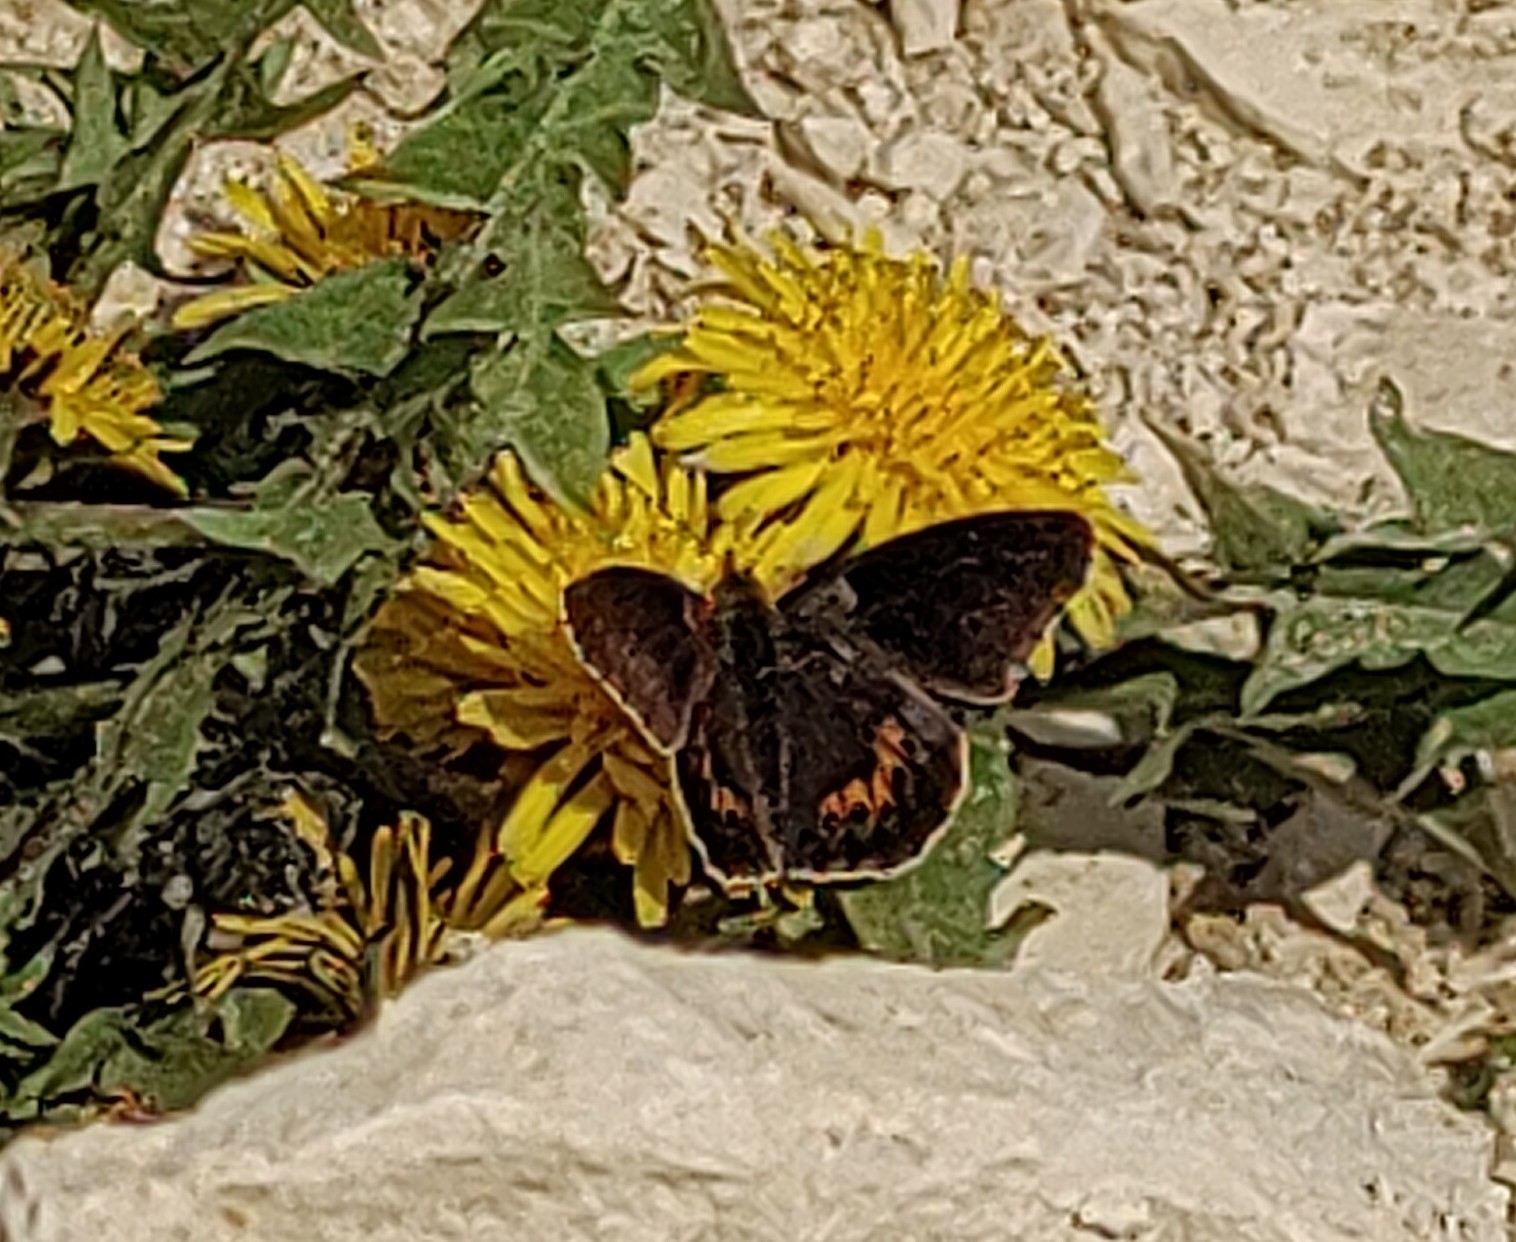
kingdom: Animalia
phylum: Arthropoda
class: Insecta
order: Lepidoptera
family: Nymphalidae
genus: Issoria
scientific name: Issoria lathonia
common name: Queen of spain fritillary
